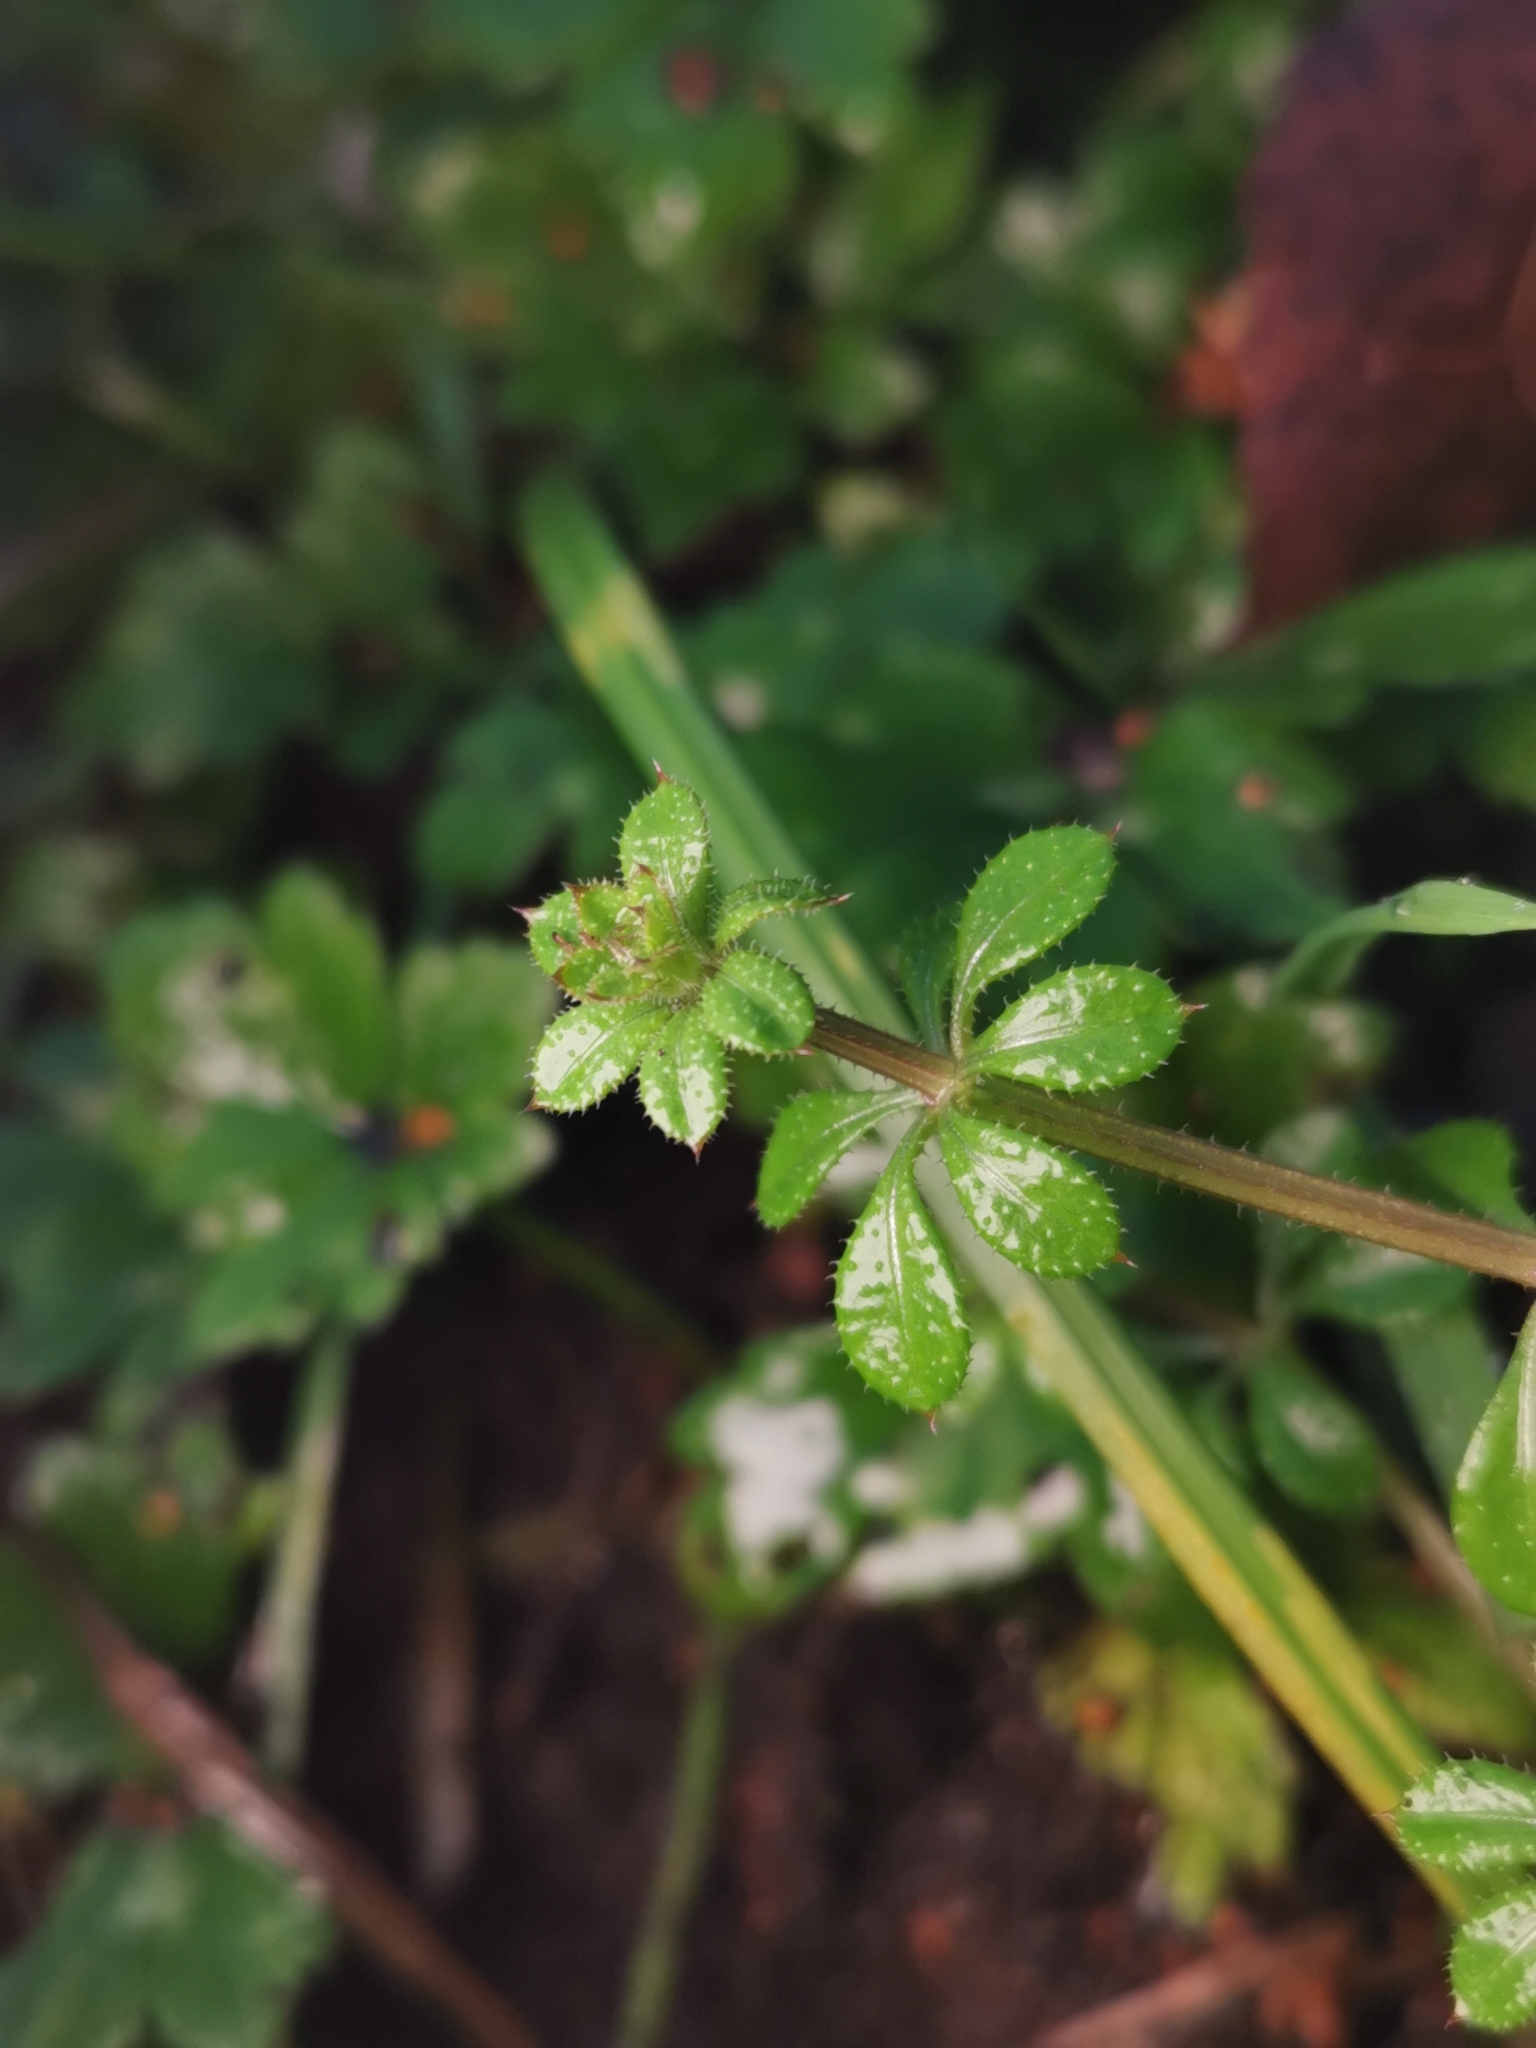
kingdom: Plantae
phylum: Tracheophyta
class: Magnoliopsida
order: Gentianales
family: Rubiaceae
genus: Galium
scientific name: Galium aparine
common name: Cleavers
